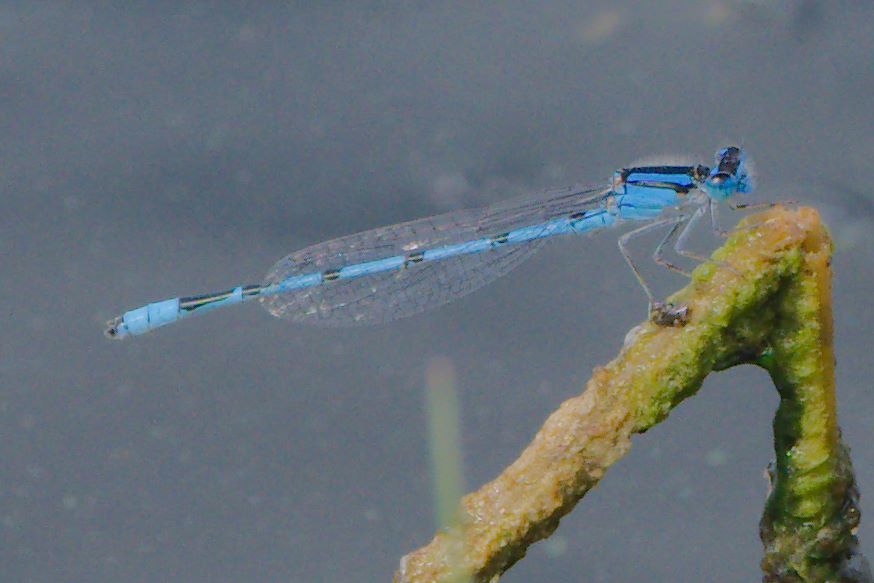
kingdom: Animalia
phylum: Arthropoda
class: Insecta
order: Odonata
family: Coenagrionidae
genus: Enallagma
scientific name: Enallagma civile
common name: Damselfly
